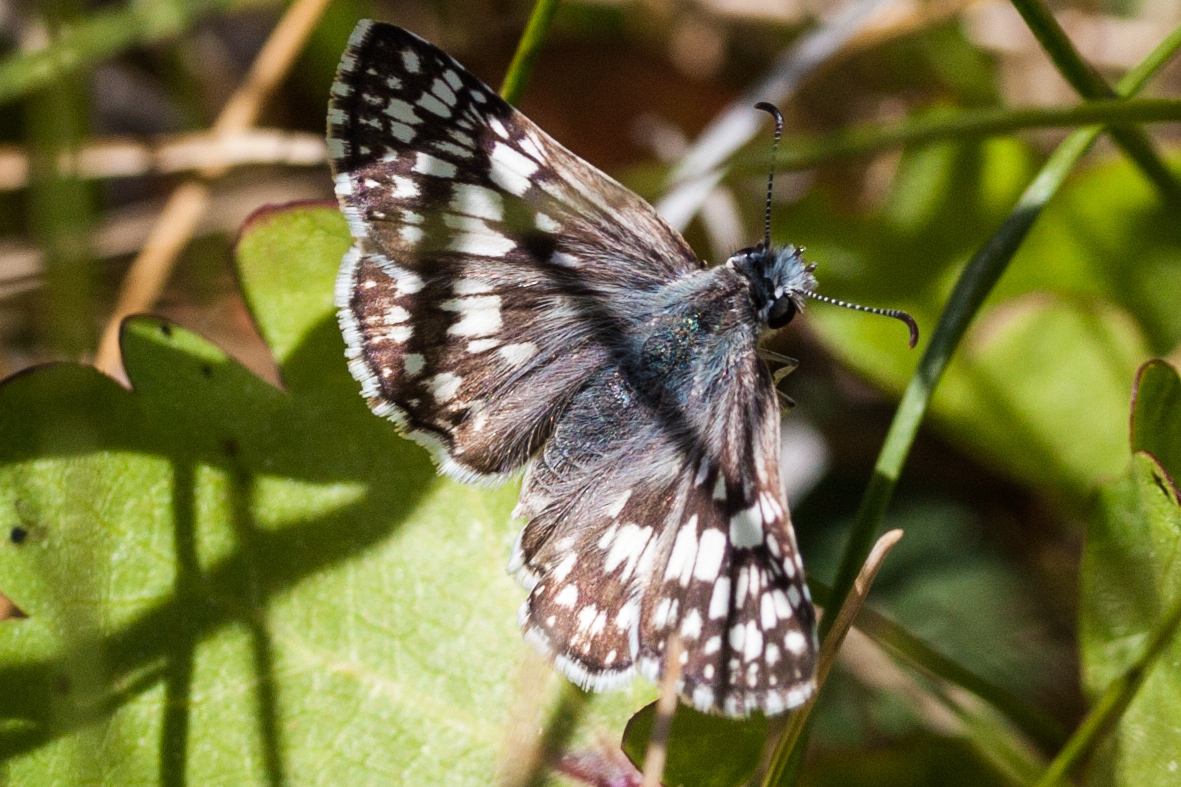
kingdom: Animalia
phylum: Arthropoda
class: Insecta
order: Lepidoptera
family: Hesperiidae
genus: Burnsius
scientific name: Burnsius communis
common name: Common checkered-skipper
